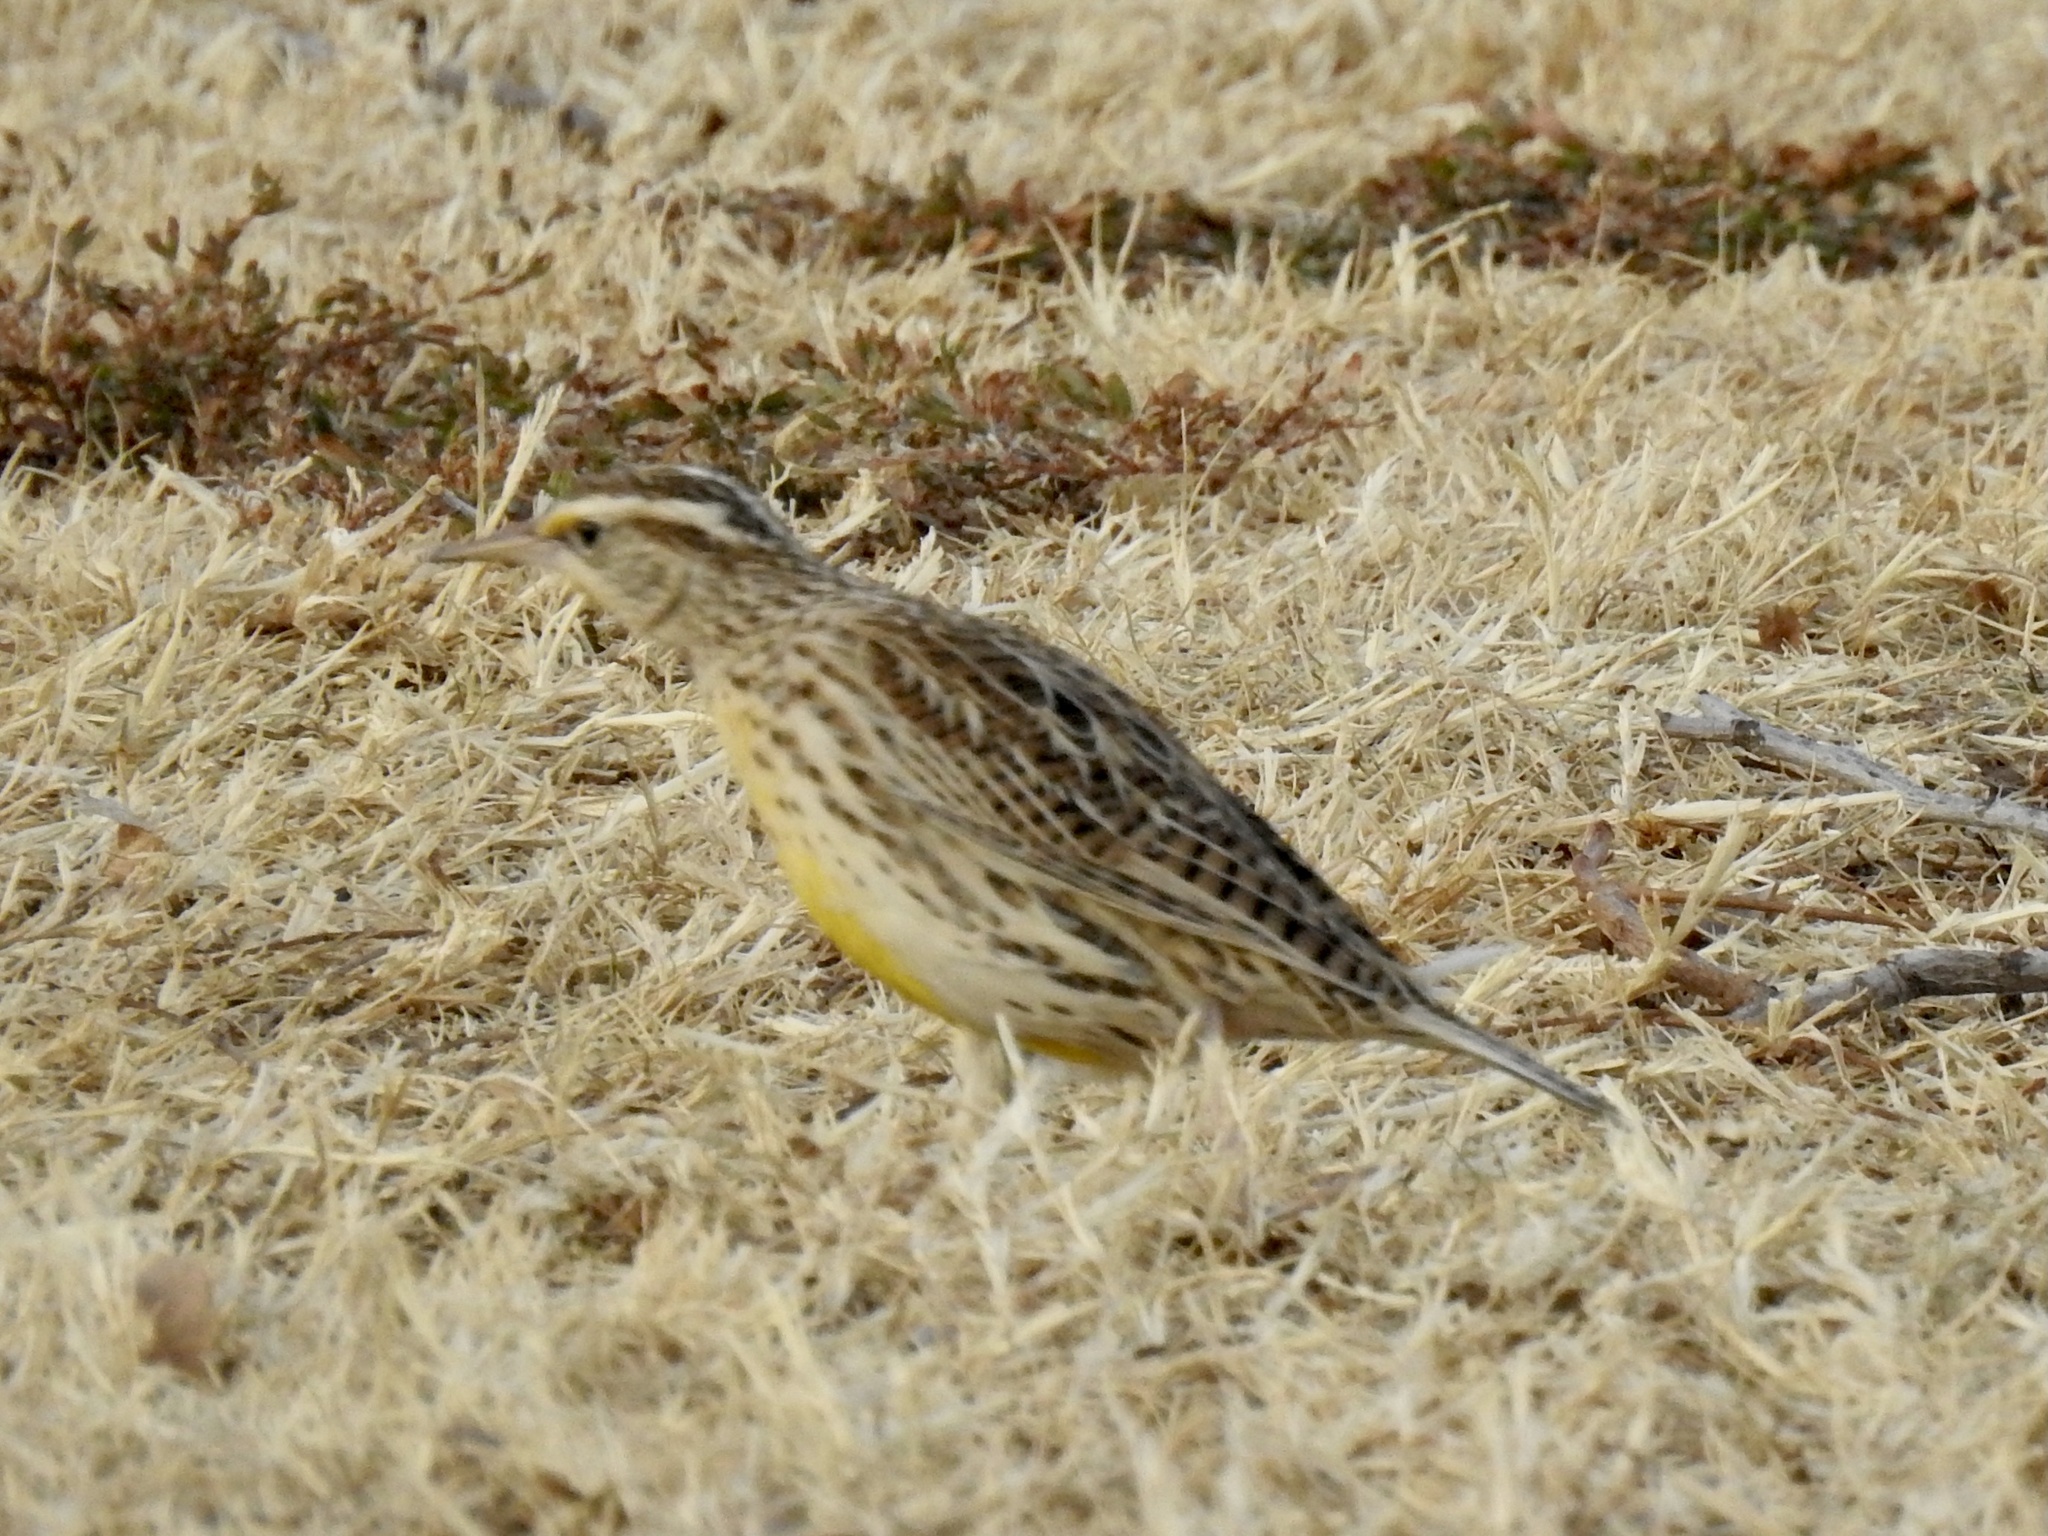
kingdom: Animalia
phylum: Chordata
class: Aves
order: Passeriformes
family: Icteridae
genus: Sturnella
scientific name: Sturnella neglecta
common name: Western meadowlark
